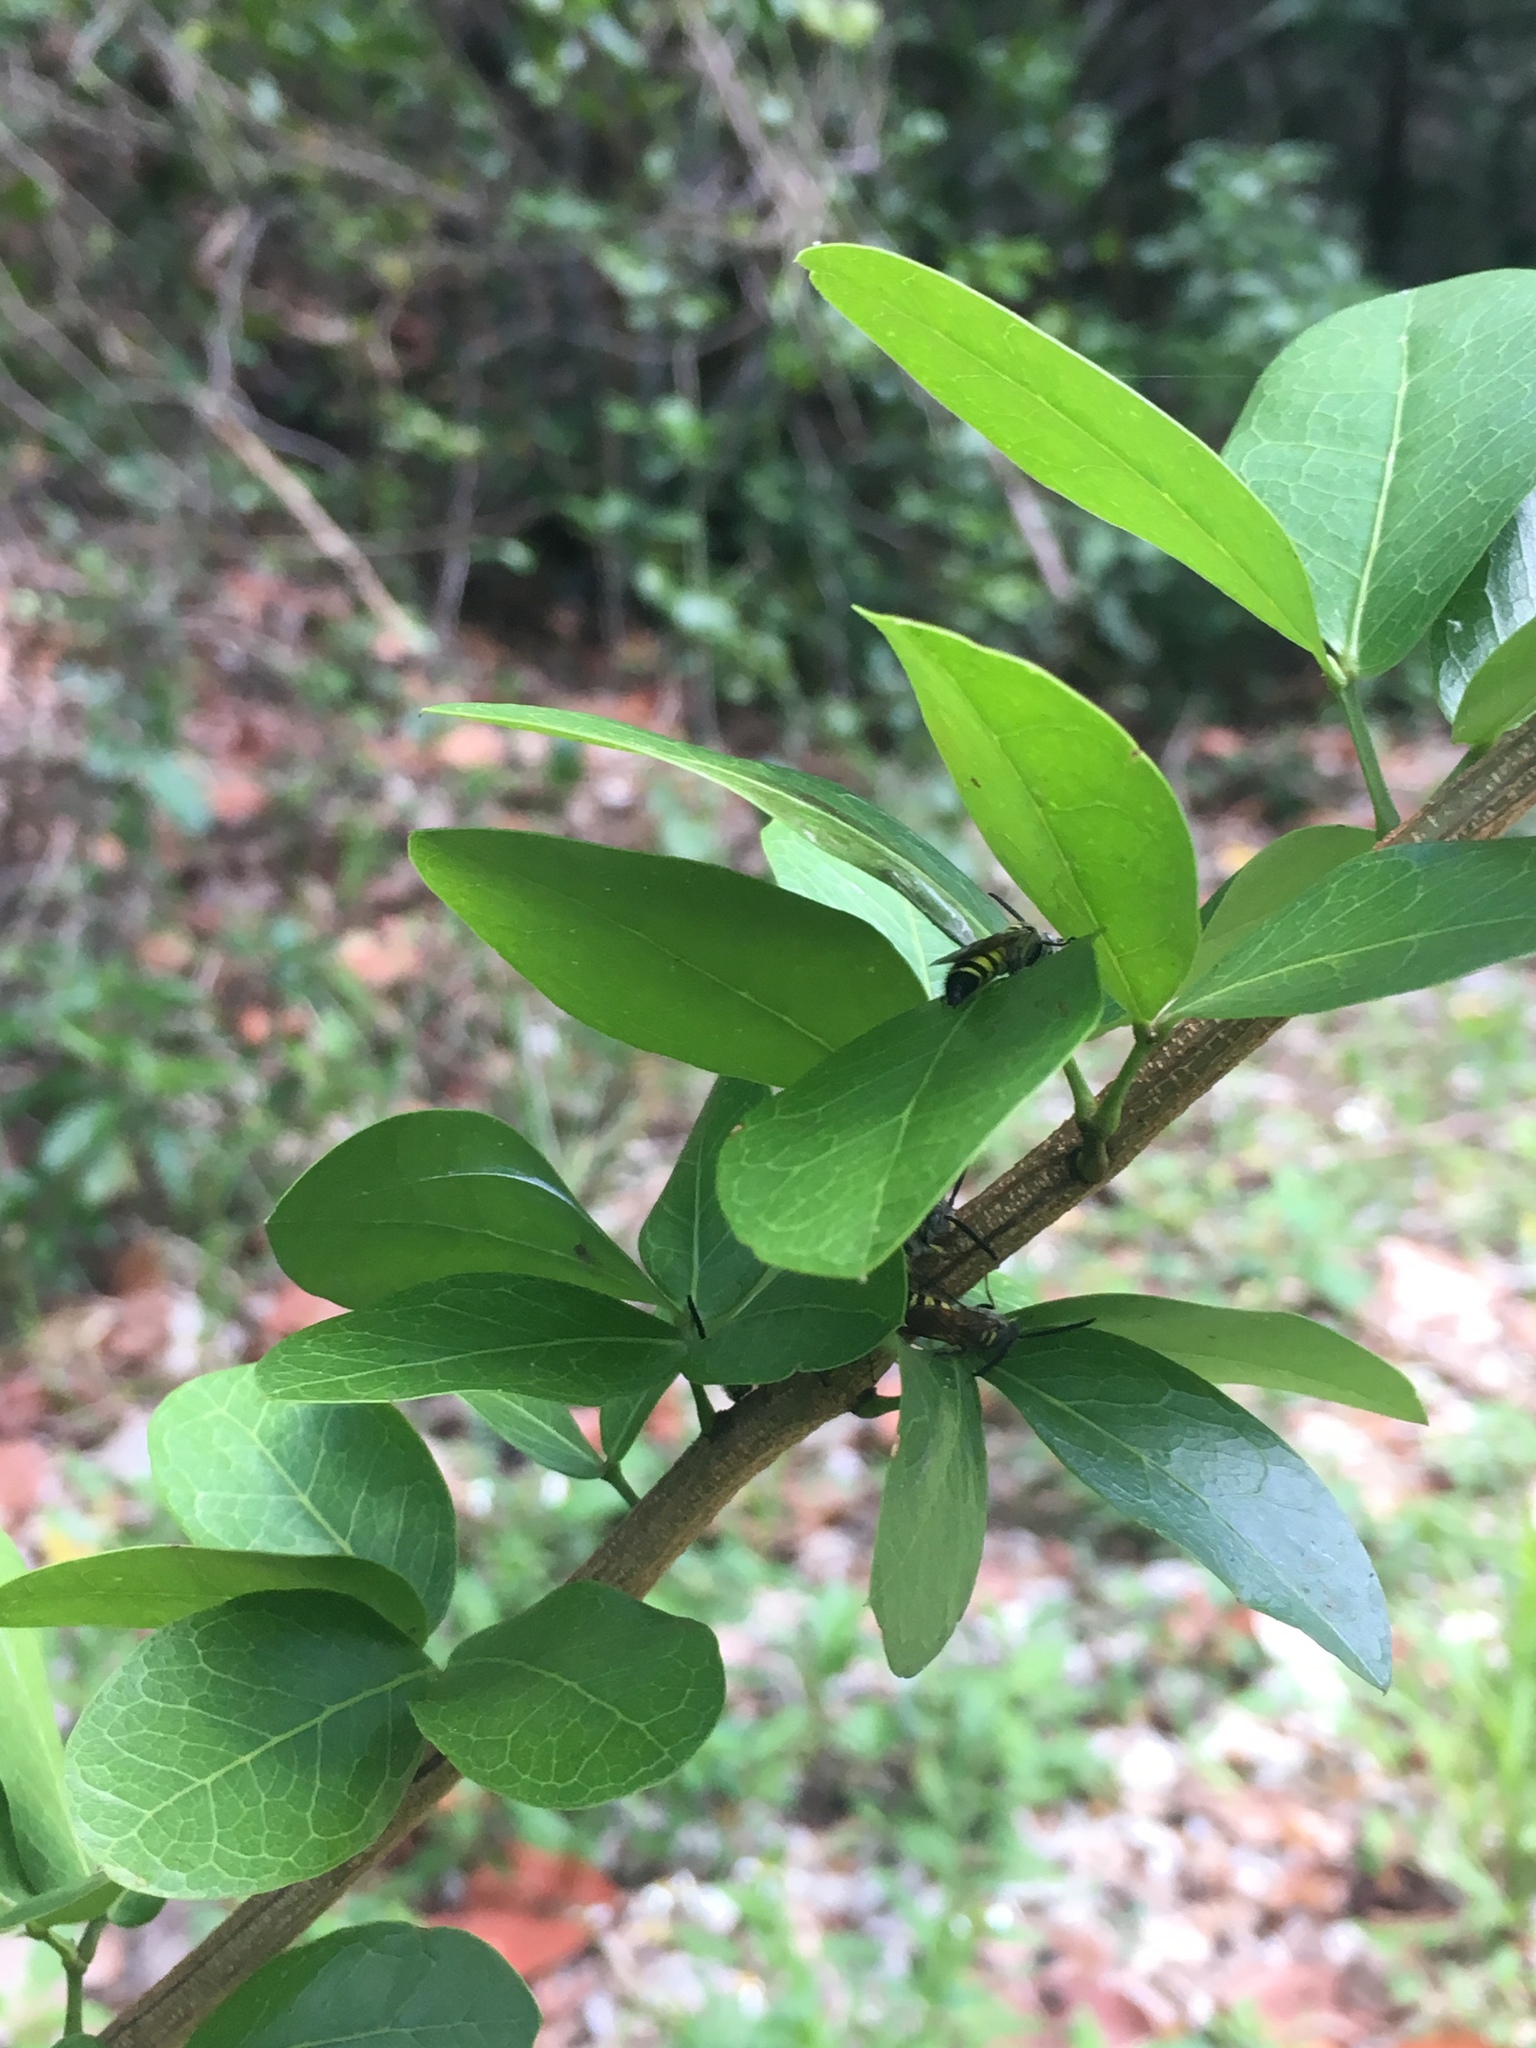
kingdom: Animalia
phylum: Arthropoda
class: Insecta
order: Hymenoptera
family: Scoliidae
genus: Dielis
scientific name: Dielis
